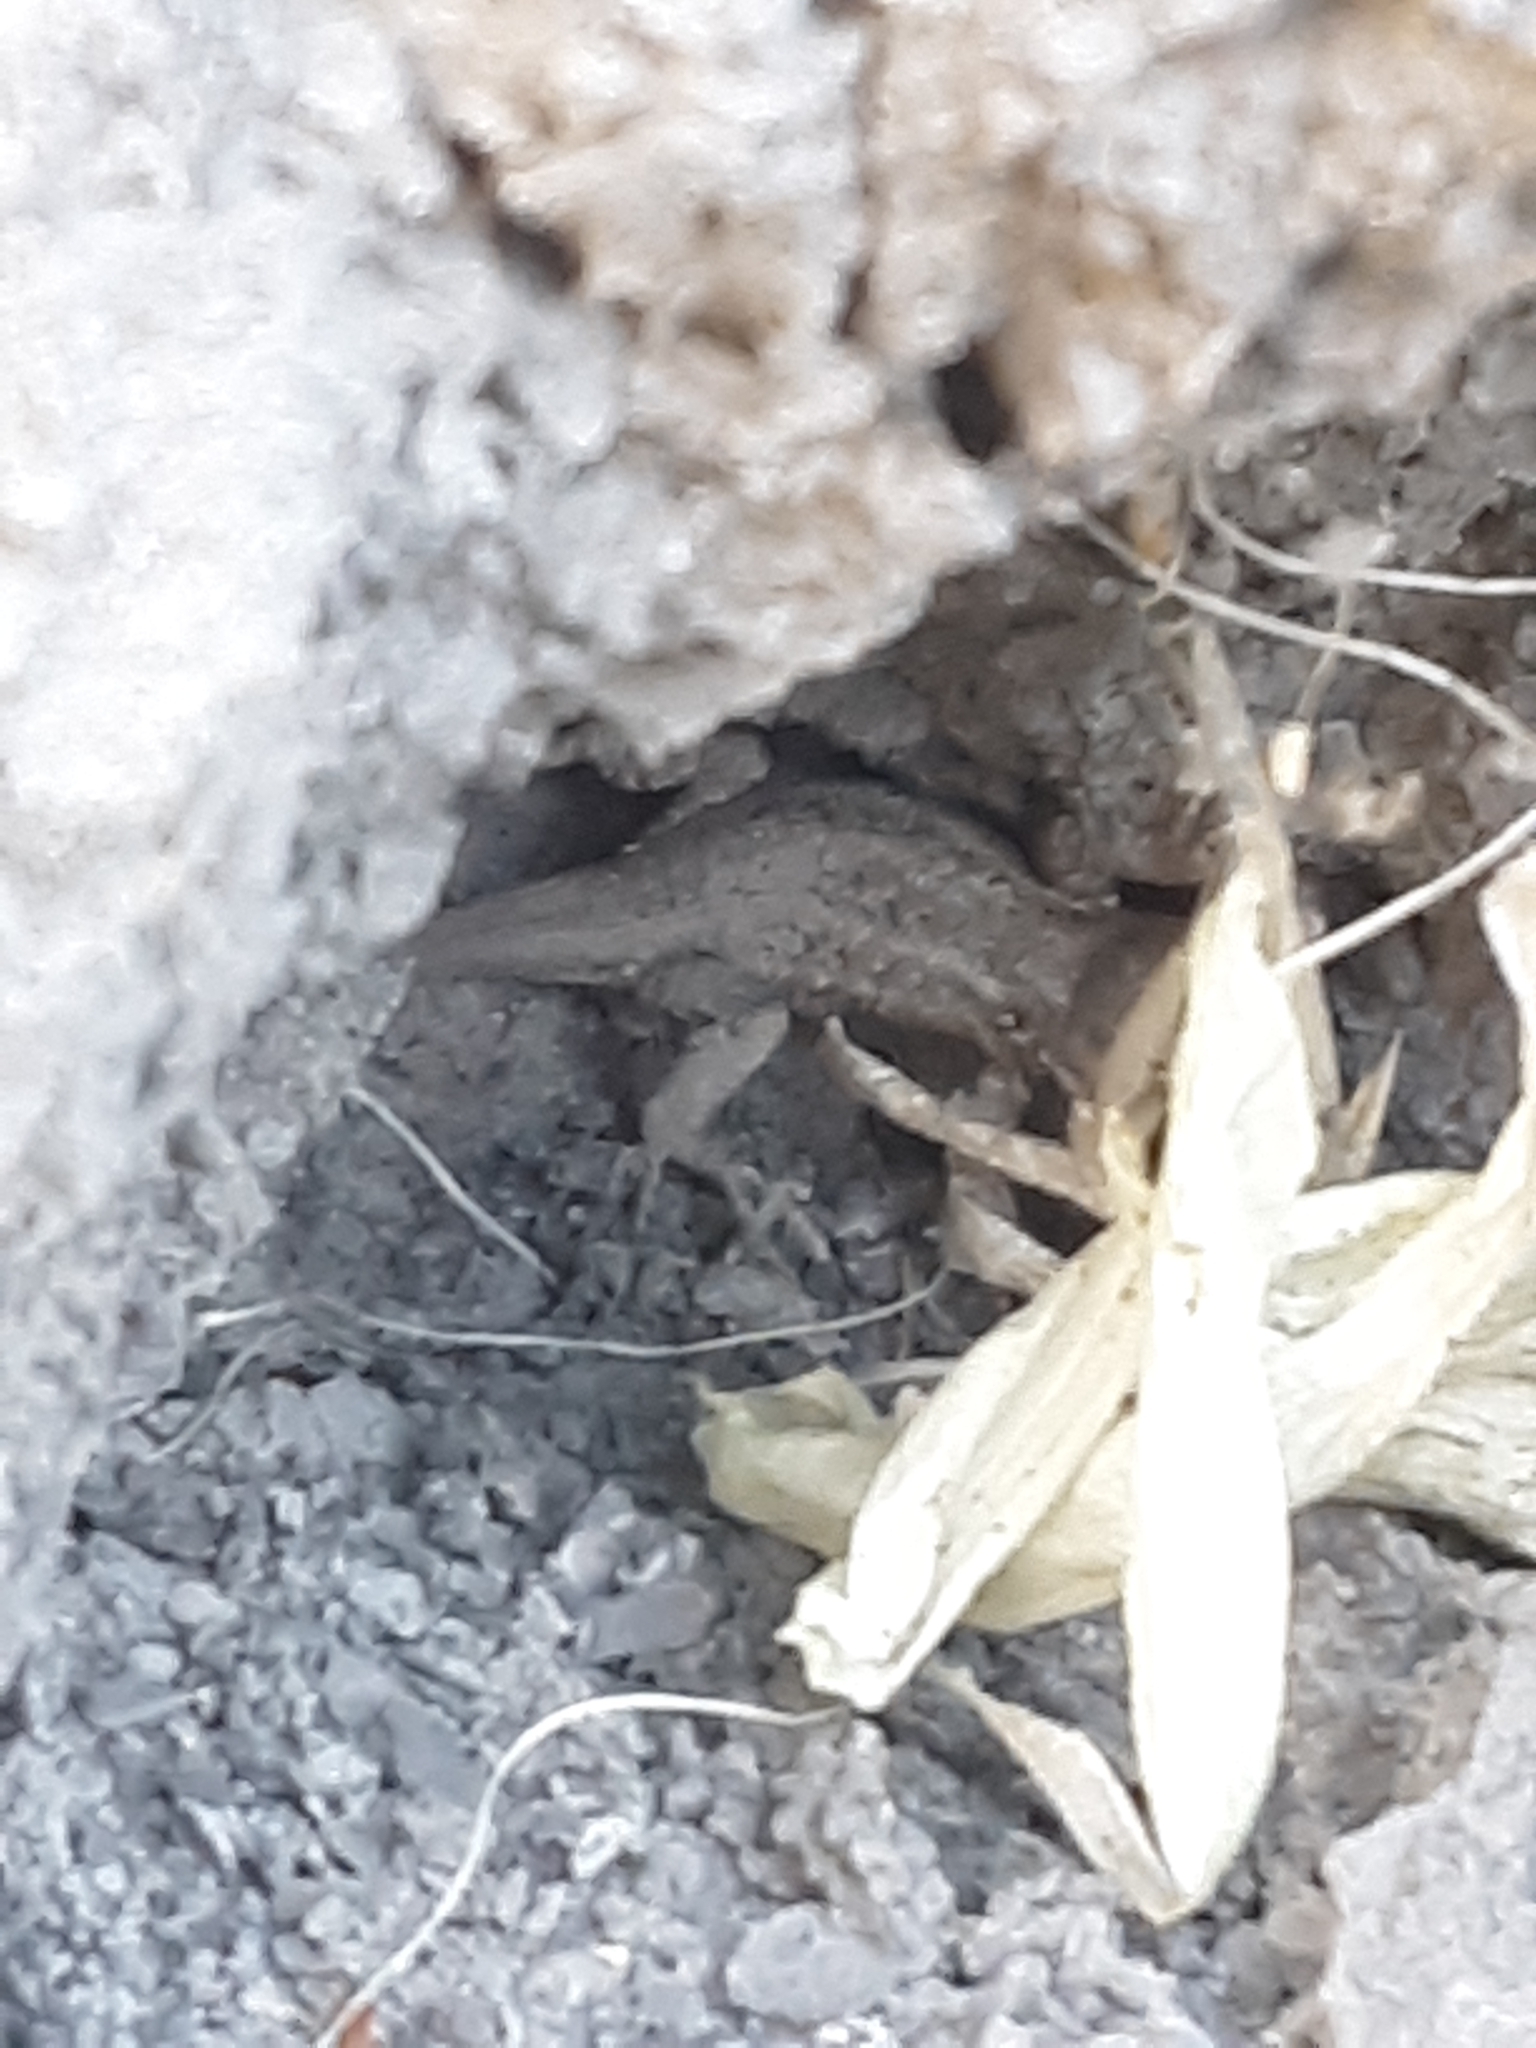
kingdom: Animalia
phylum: Chordata
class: Squamata
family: Phrynosomatidae
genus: Sceloporus
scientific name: Sceloporus graciosus
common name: Sagebrush lizard
